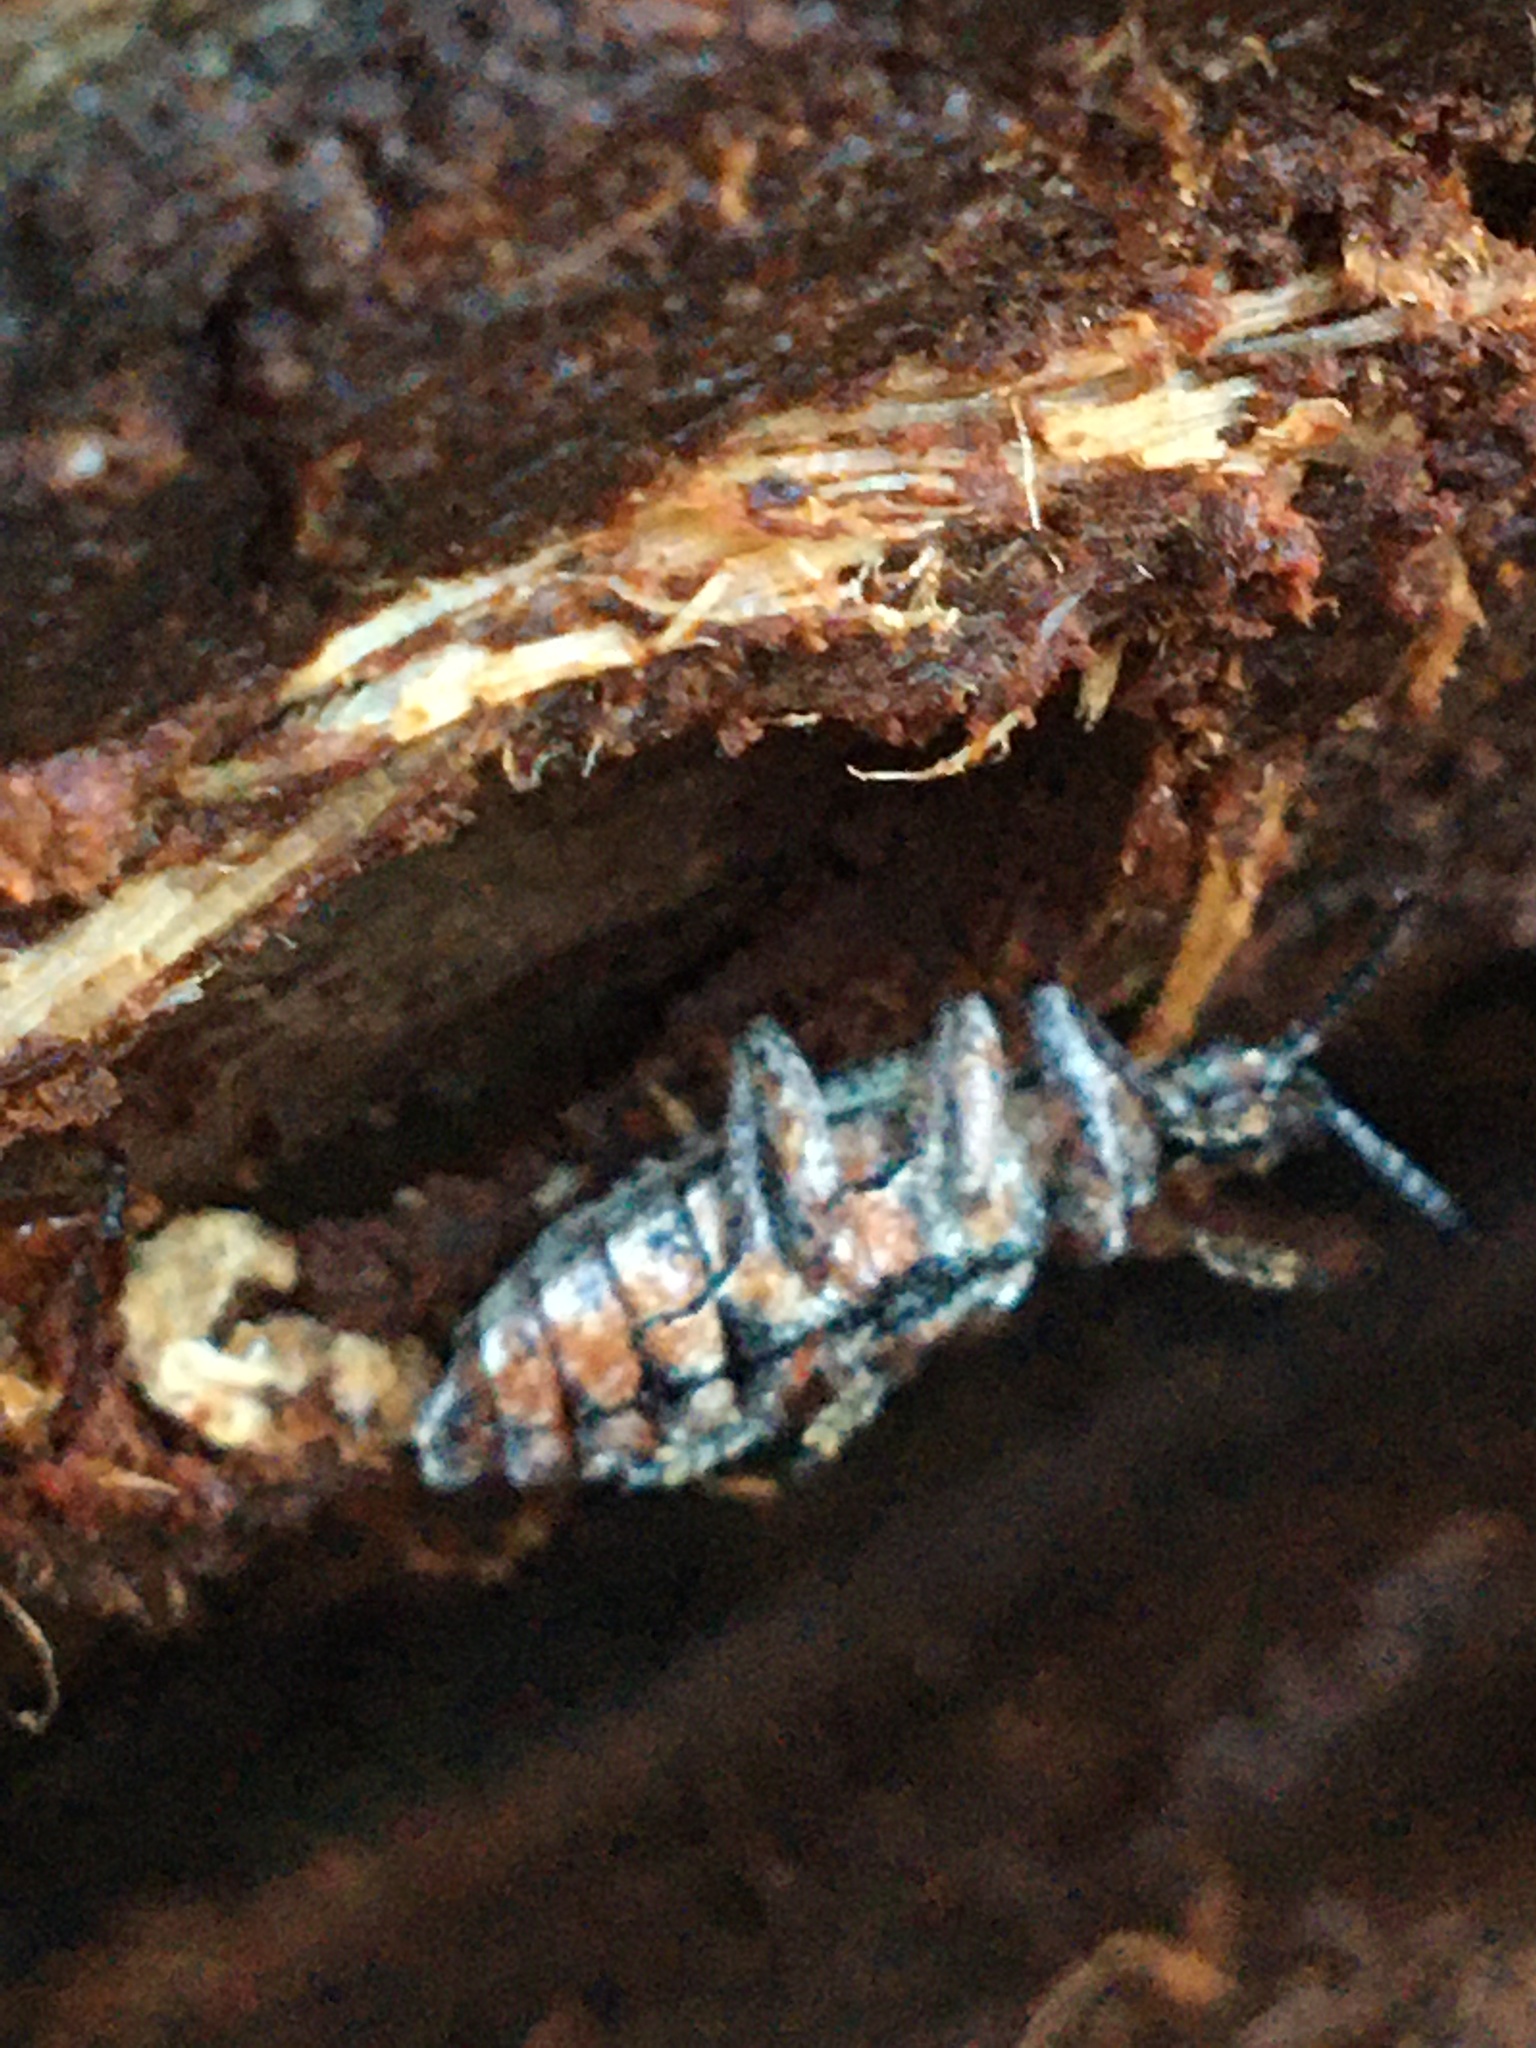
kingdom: Animalia
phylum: Arthropoda
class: Insecta
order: Coleoptera
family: Cerambycidae
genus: Rhagium
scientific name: Rhagium inquisitor
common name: Ribbed pine borer
